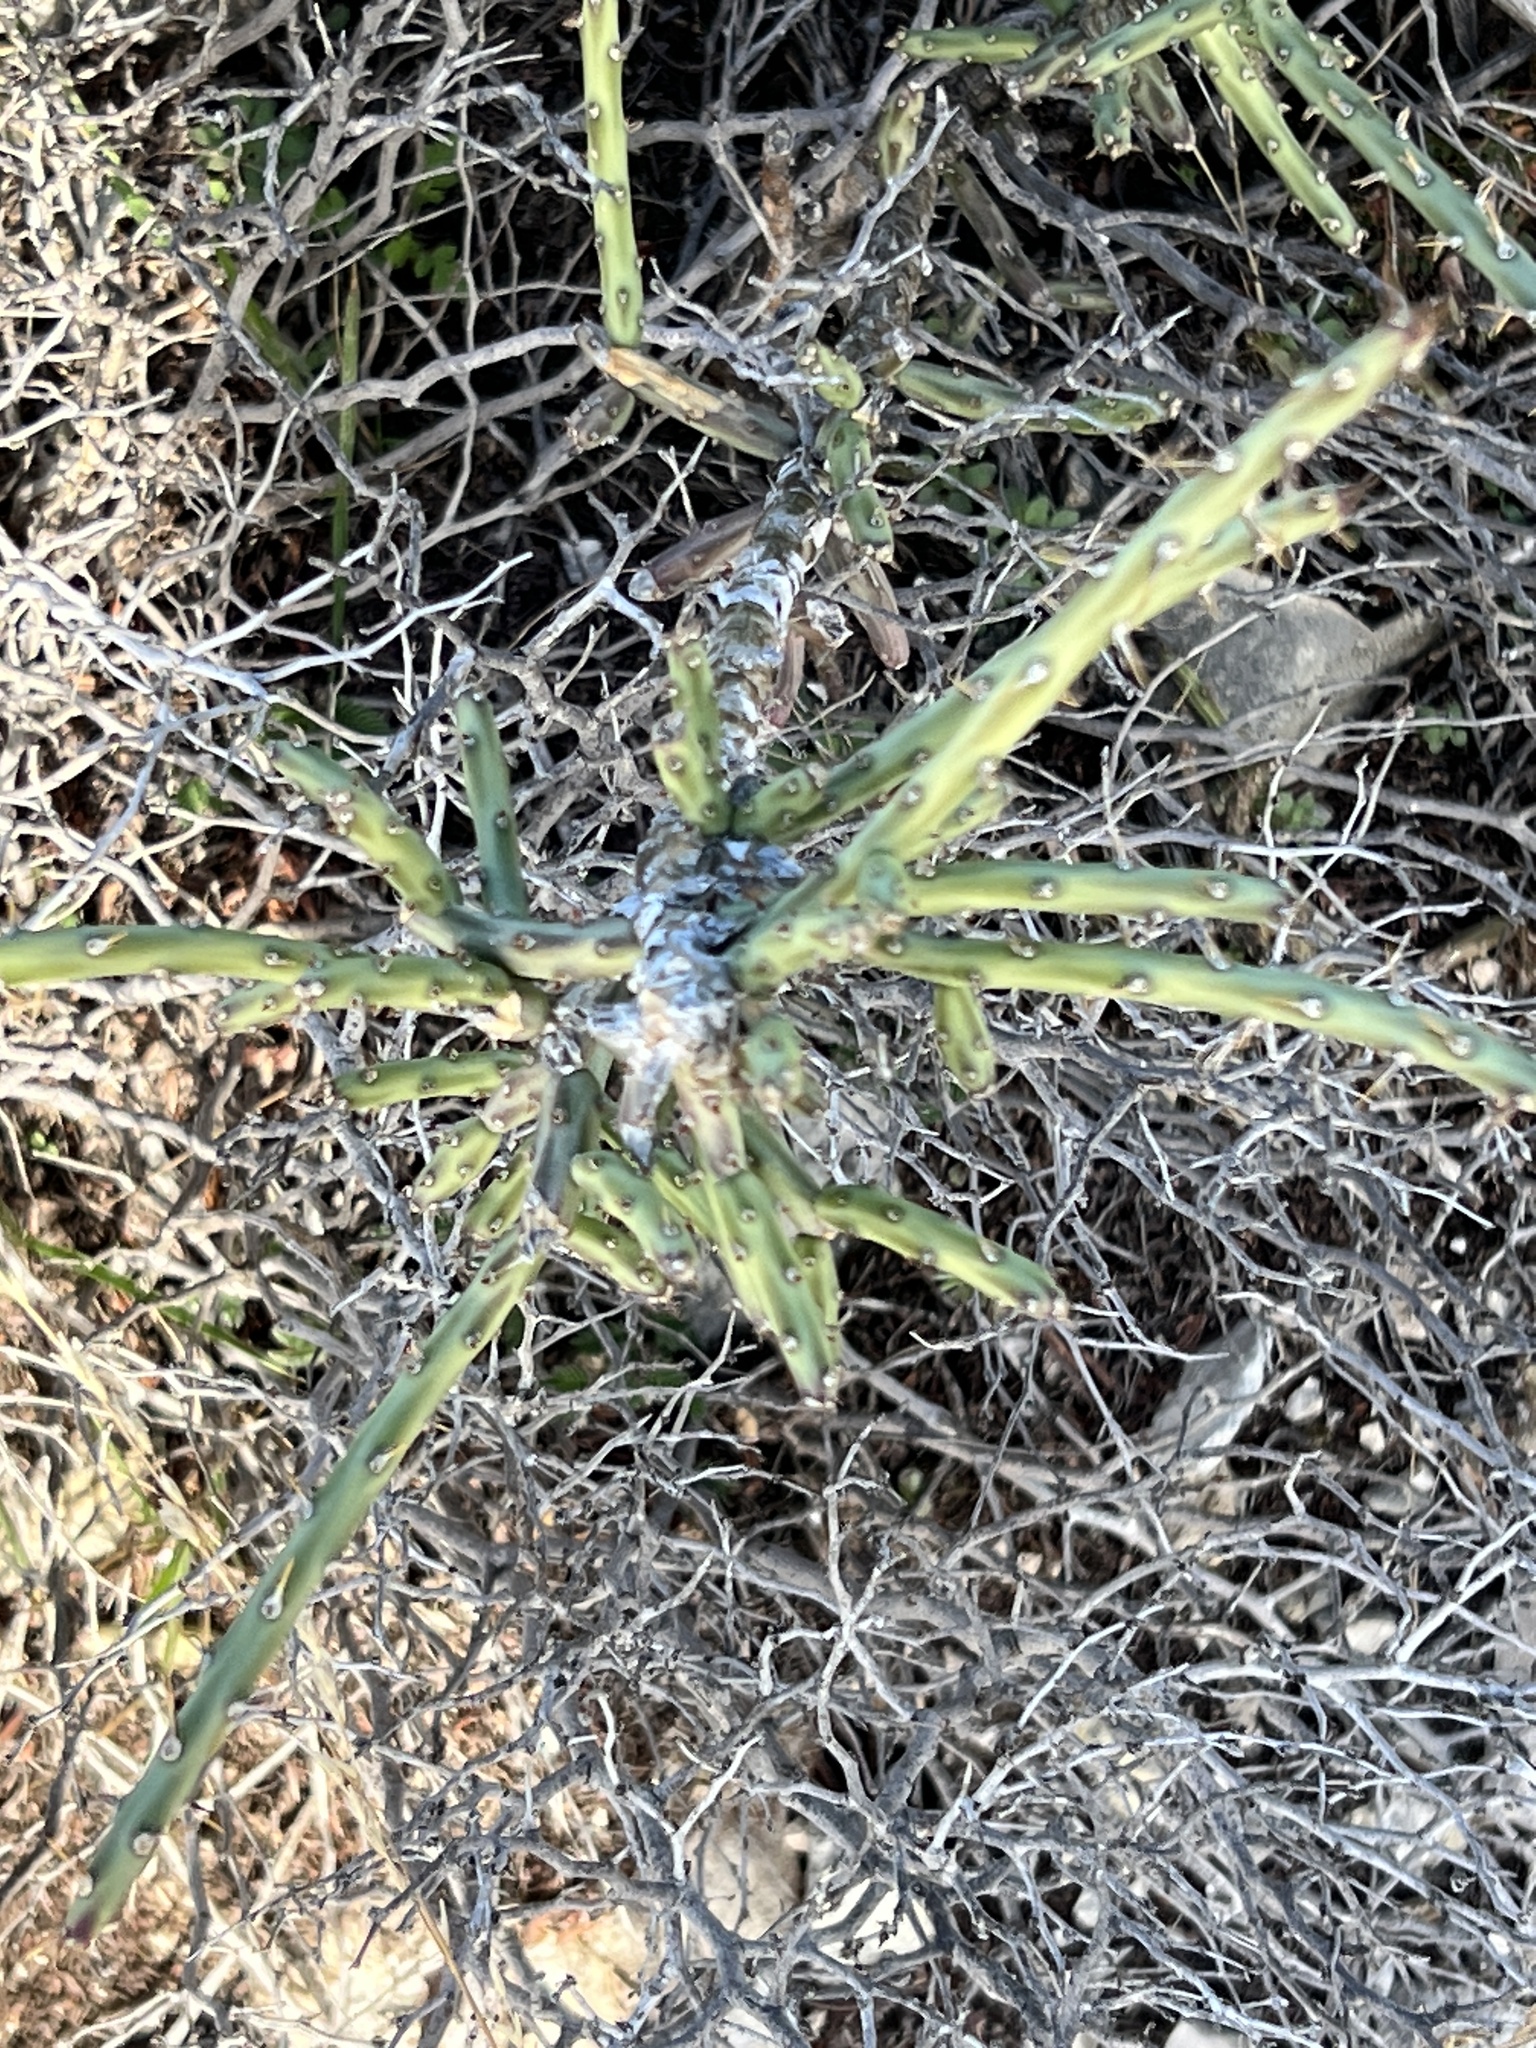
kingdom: Plantae
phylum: Tracheophyta
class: Magnoliopsida
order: Caryophyllales
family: Cactaceae
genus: Cylindropuntia
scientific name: Cylindropuntia leptocaulis
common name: Christmas cactus
